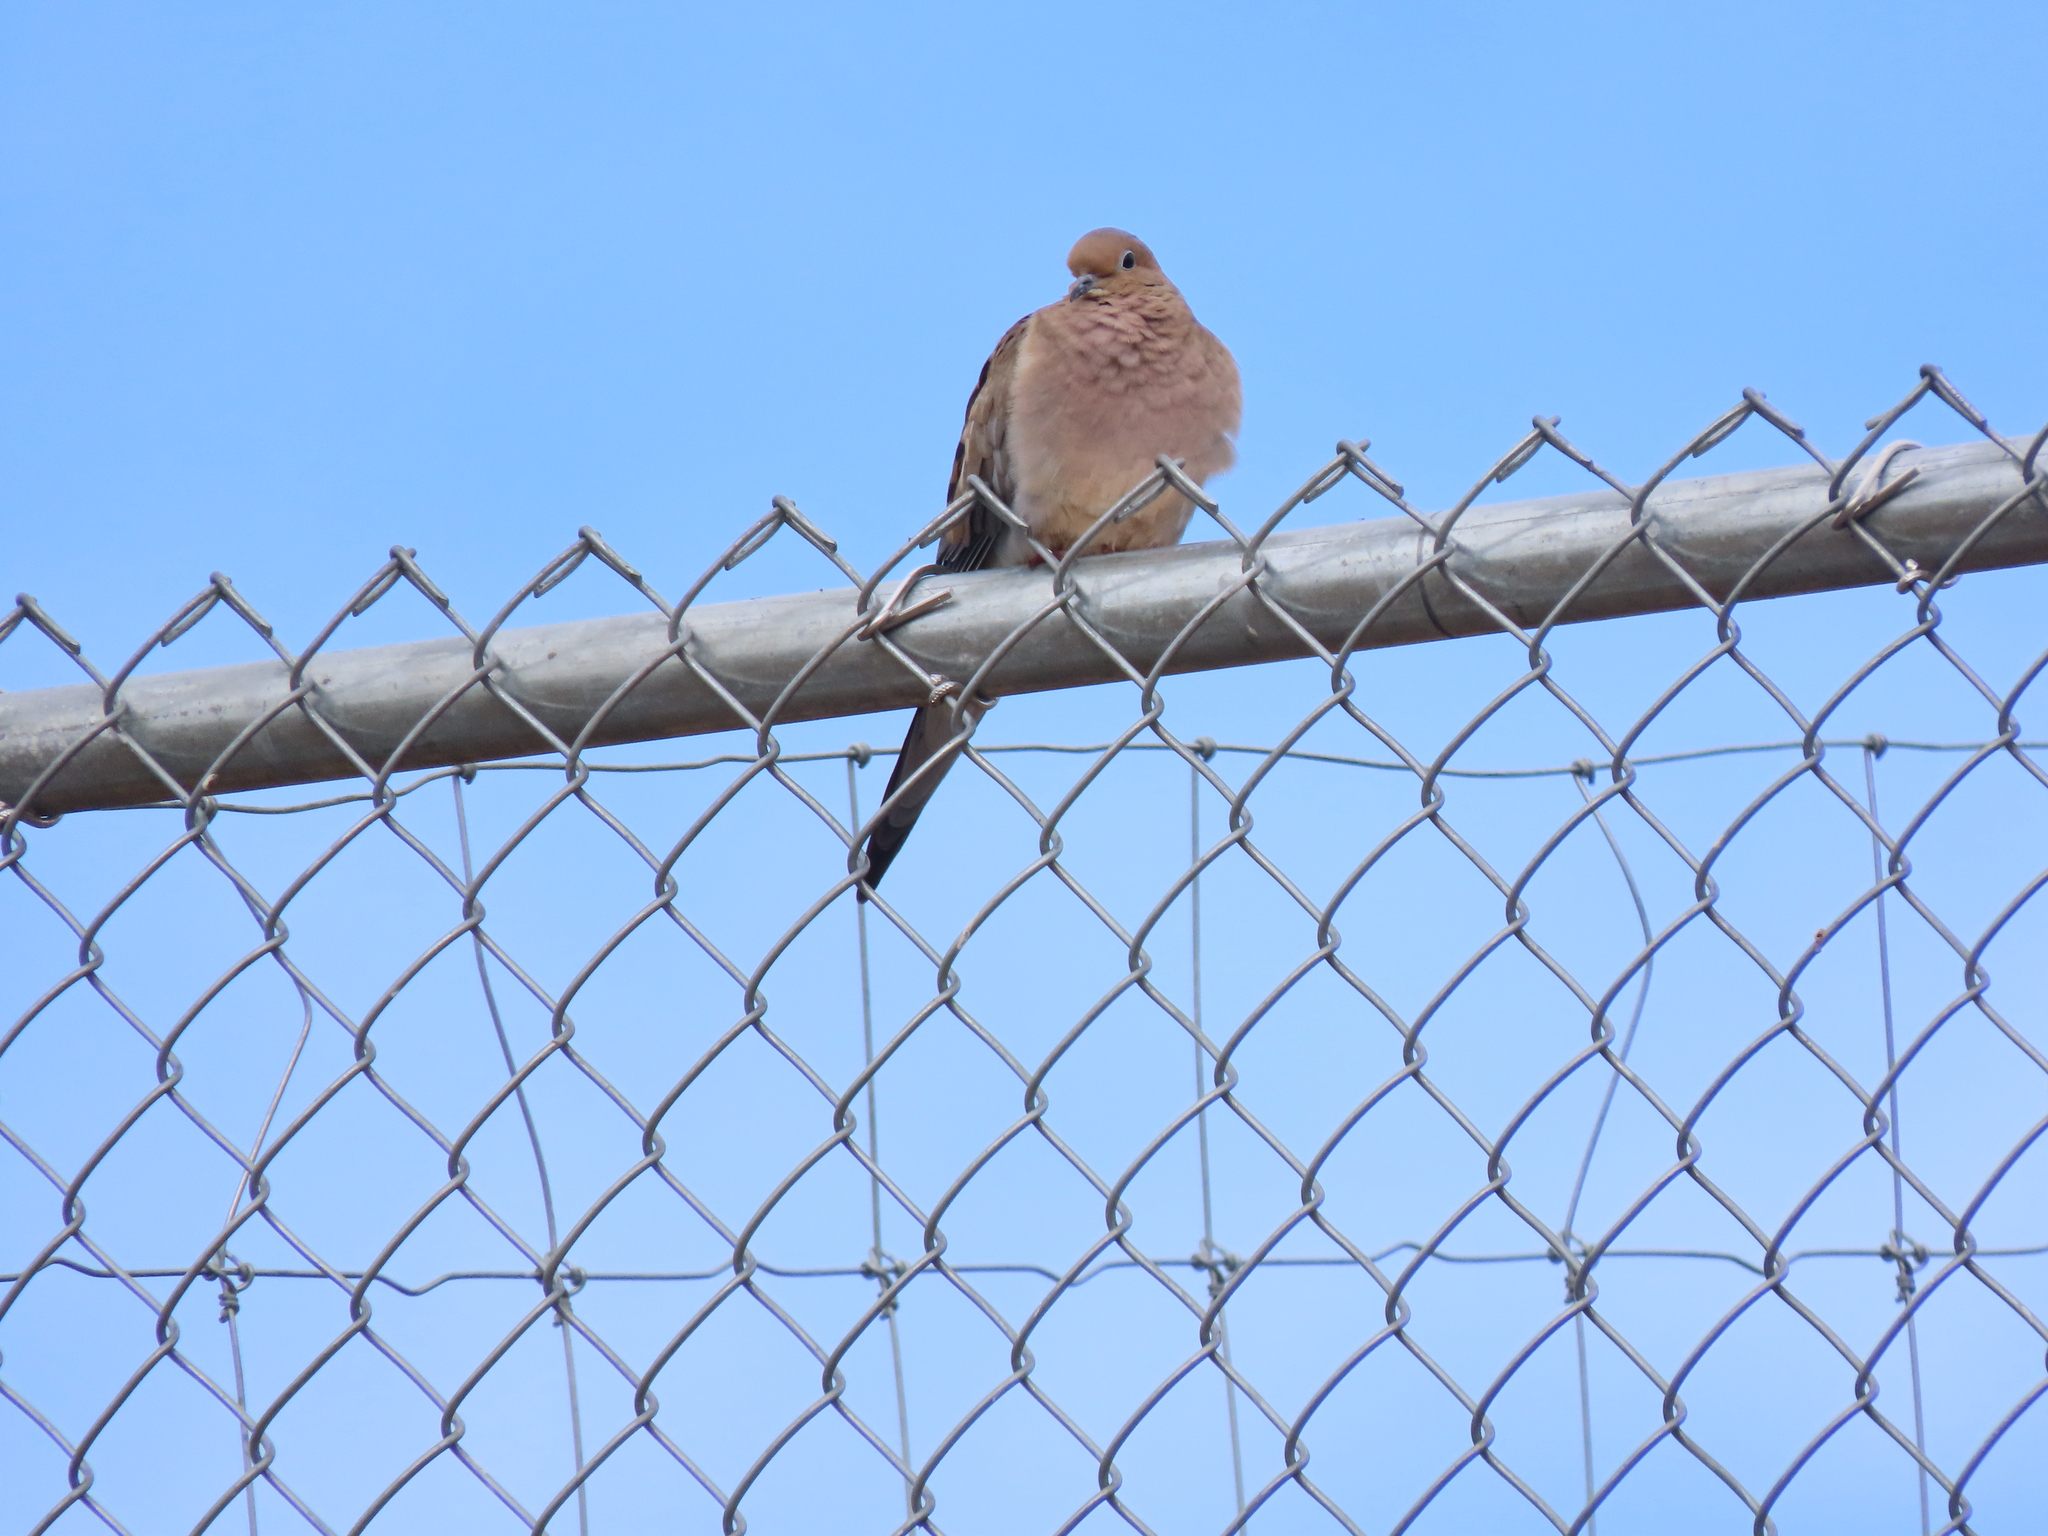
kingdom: Animalia
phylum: Chordata
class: Aves
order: Columbiformes
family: Columbidae
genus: Zenaida
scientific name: Zenaida macroura
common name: Mourning dove
